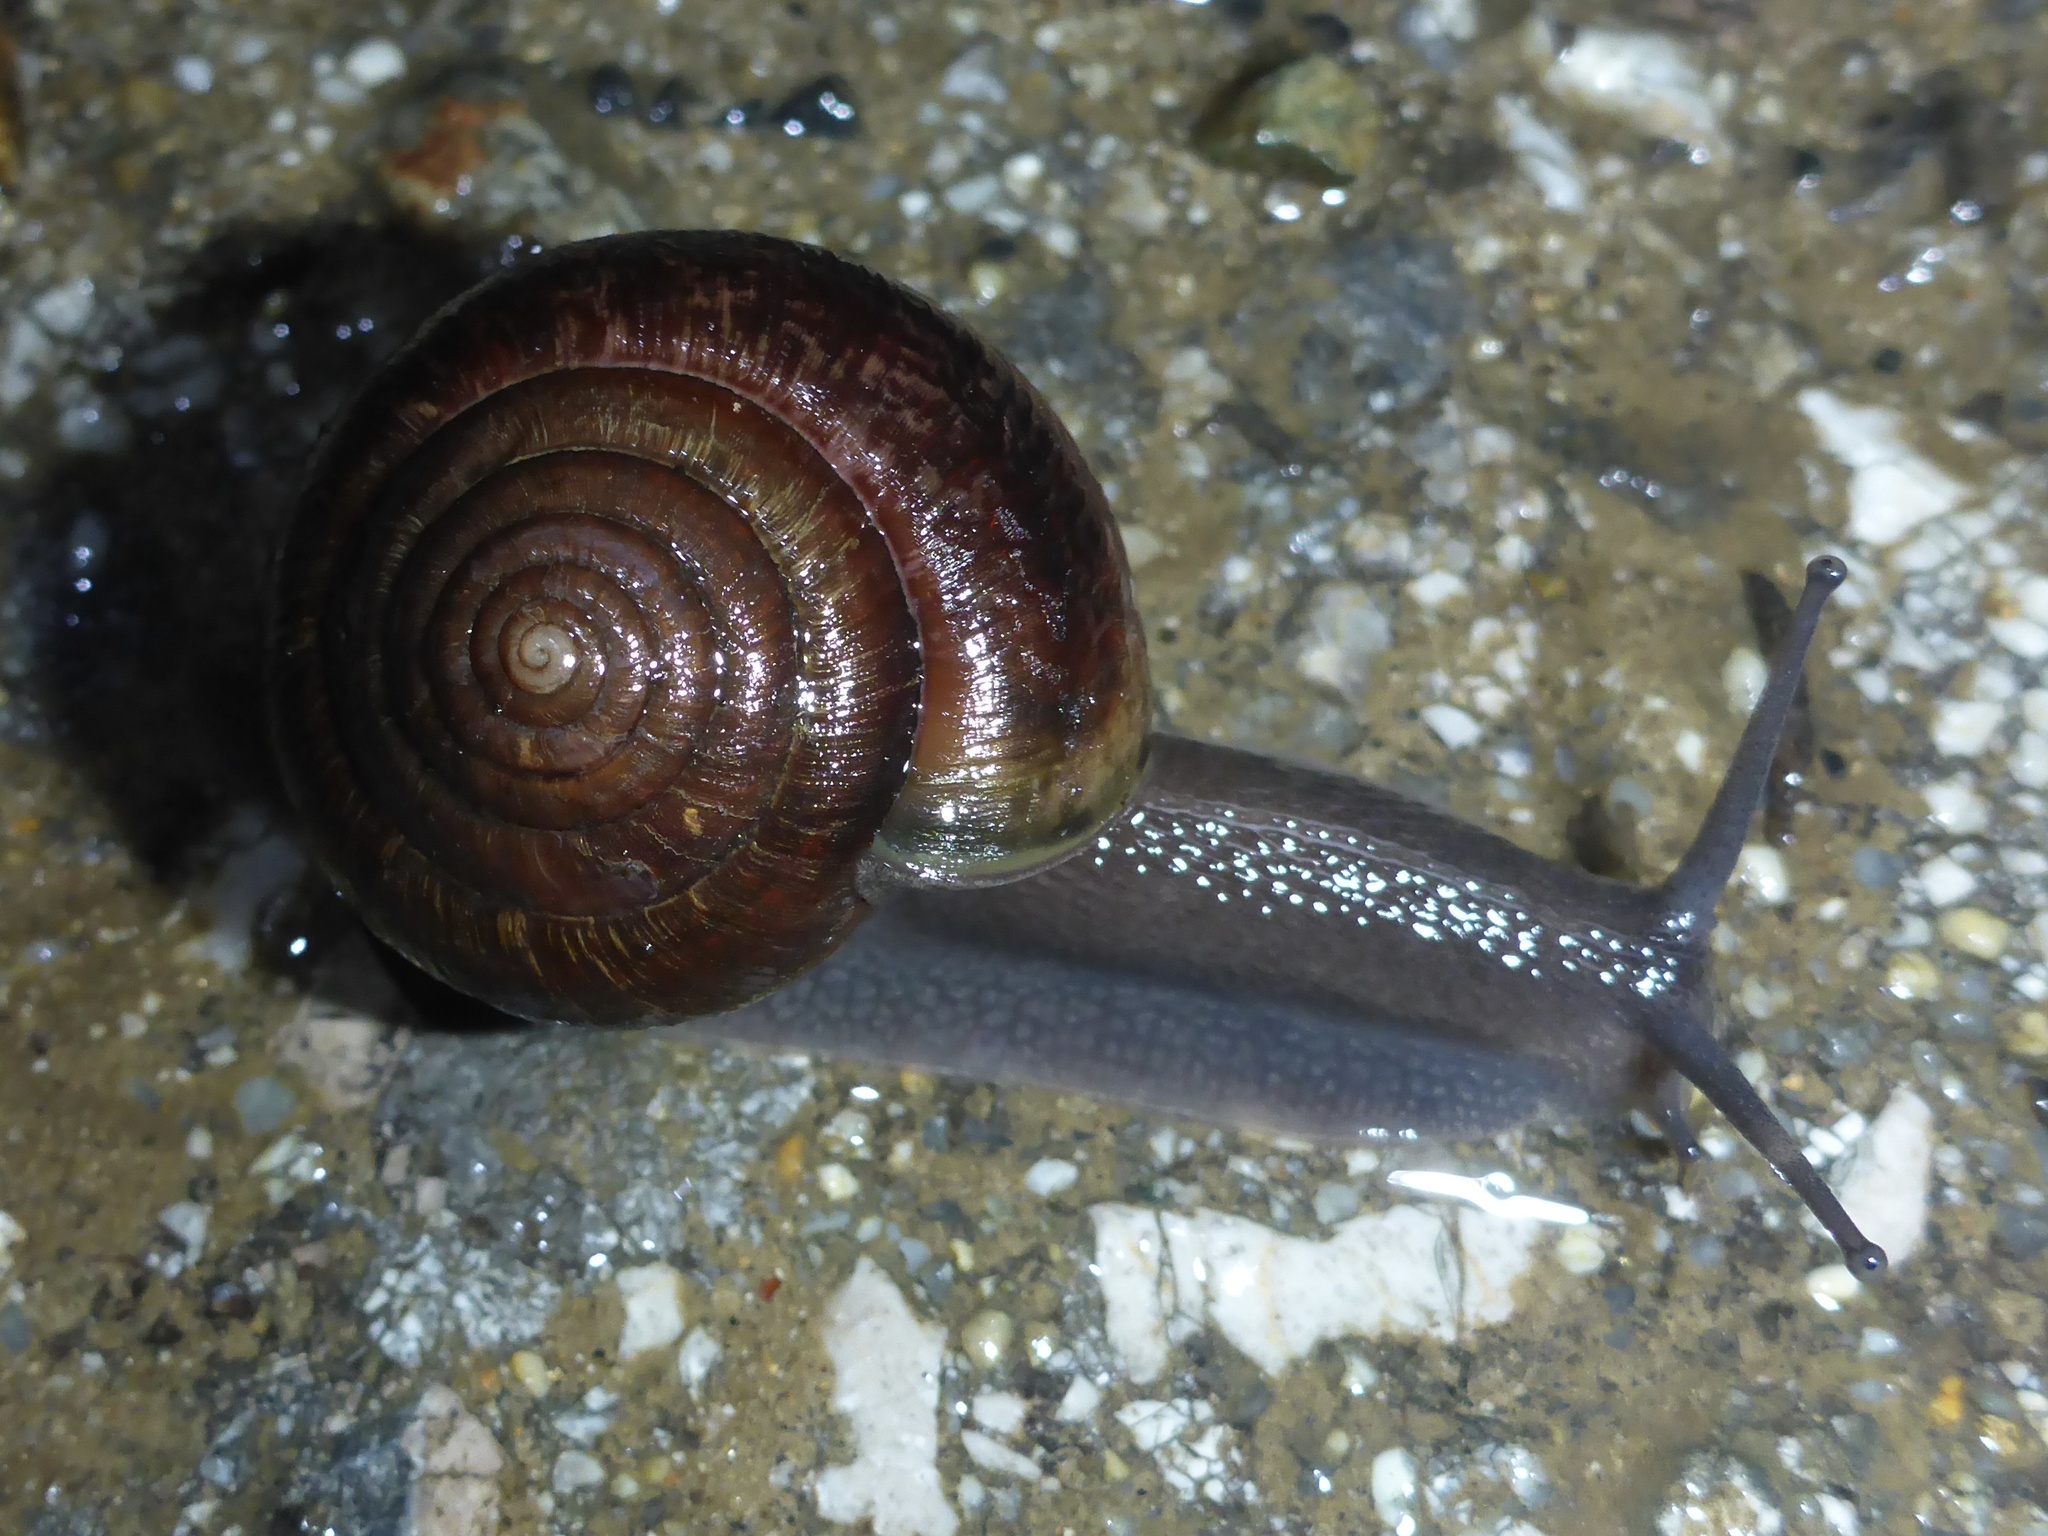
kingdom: Animalia
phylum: Mollusca
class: Gastropoda
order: Stylommatophora
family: Xanthonychidae
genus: Helminthoglypta
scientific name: Helminthoglypta arrosa
